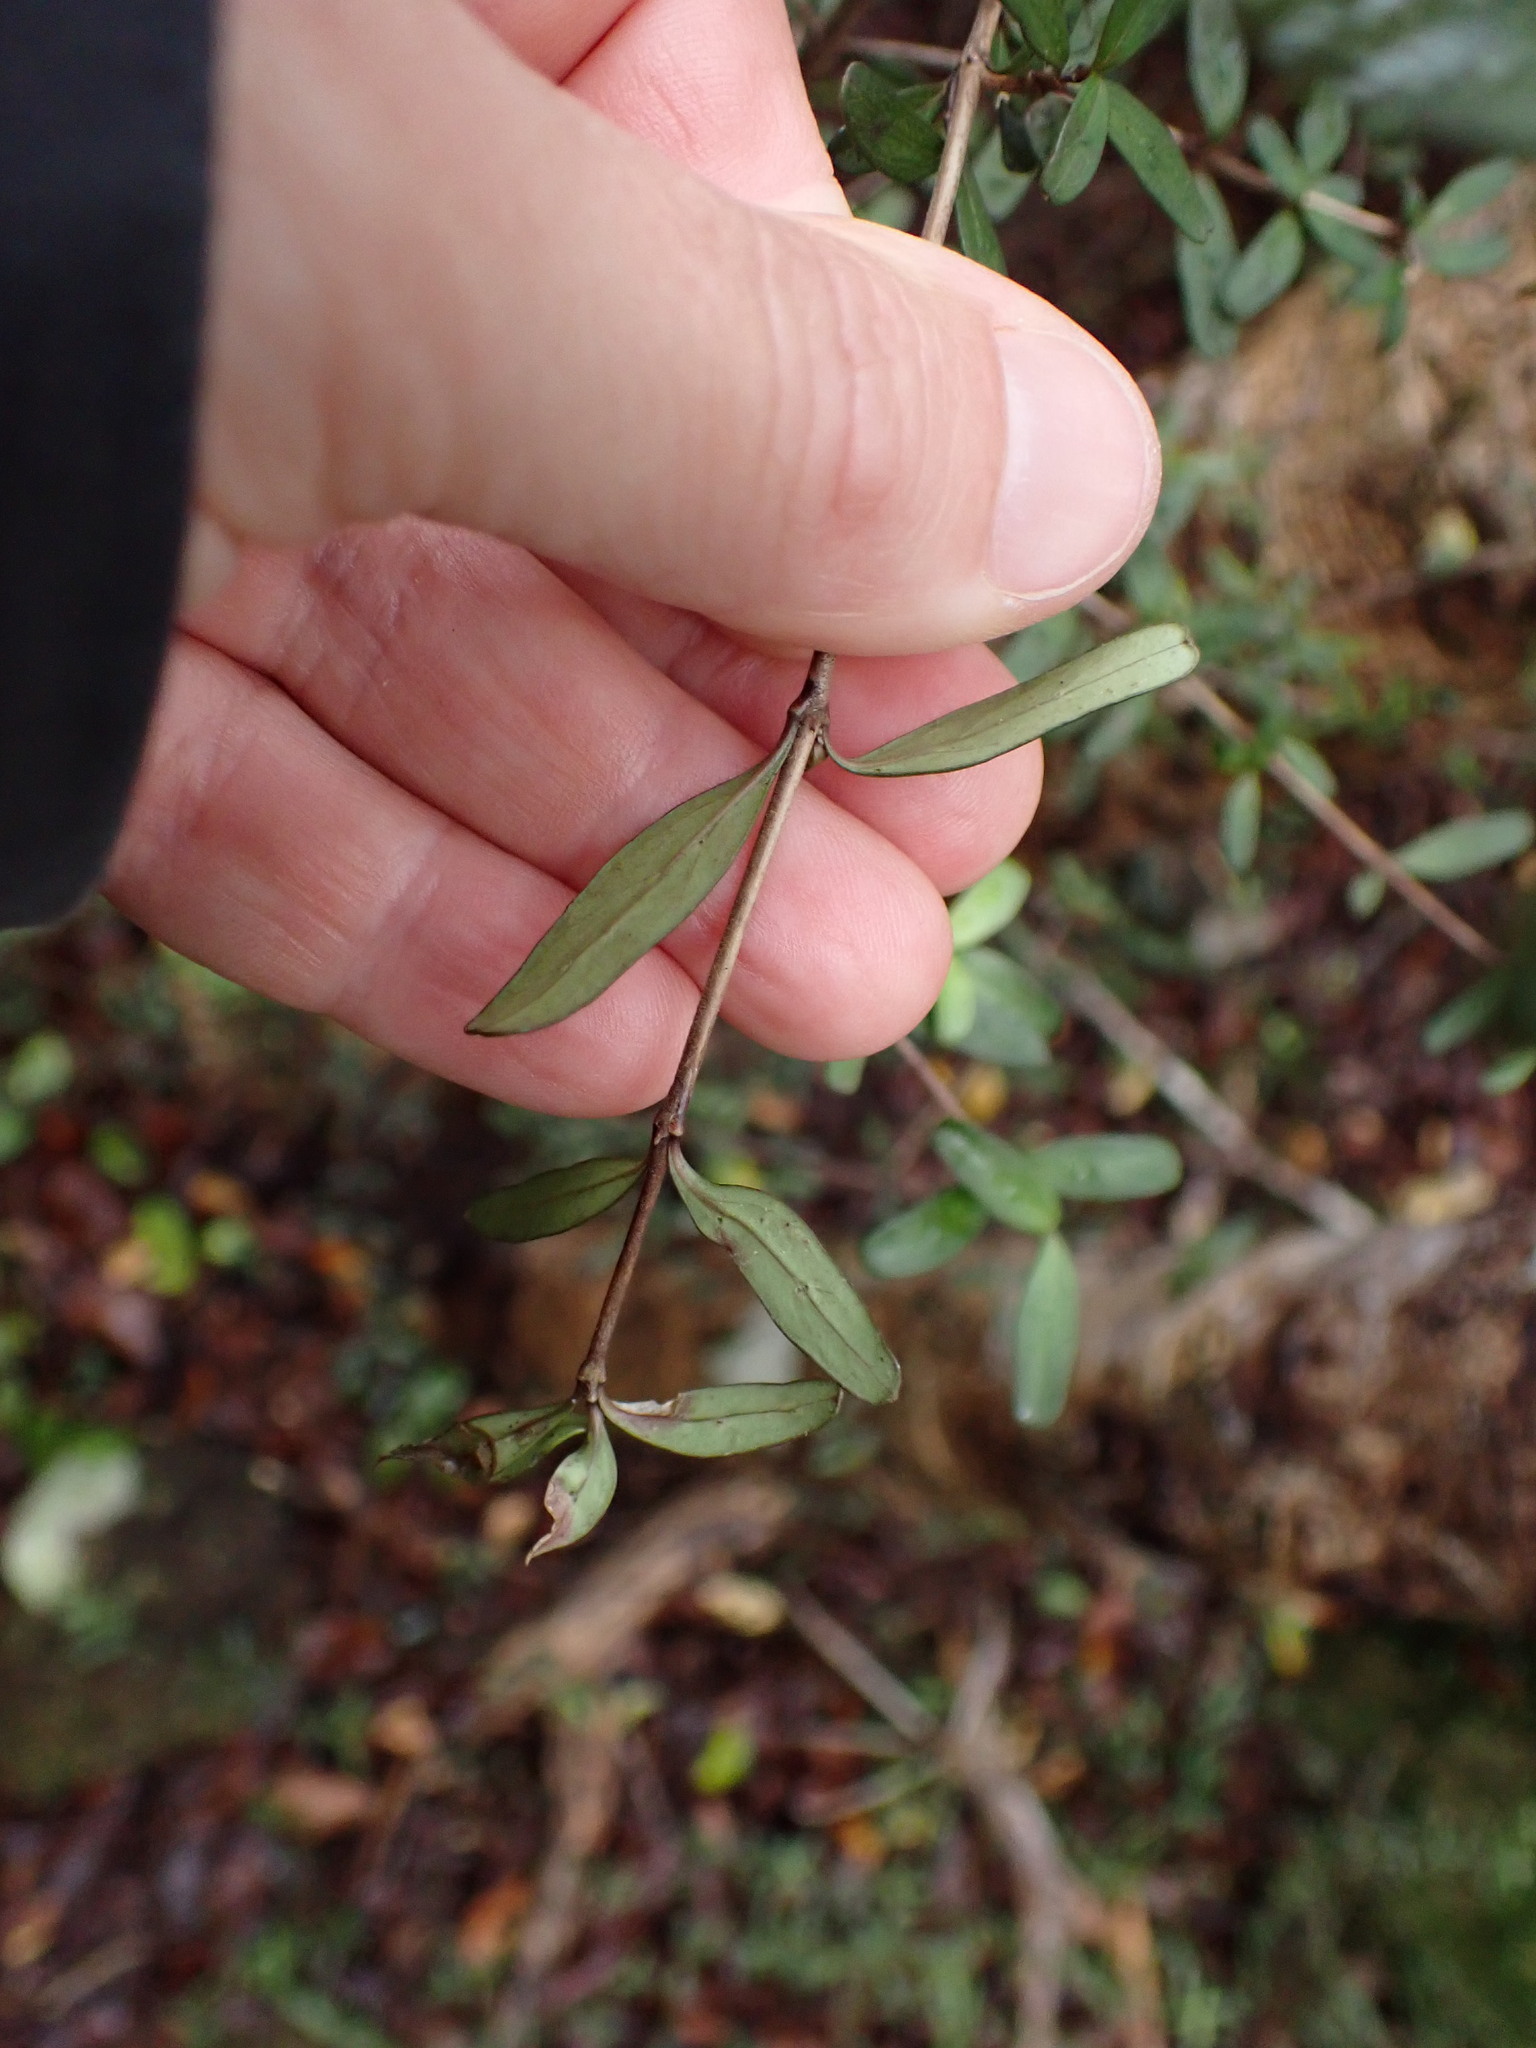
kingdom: Plantae
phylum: Tracheophyta
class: Magnoliopsida
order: Gentianales
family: Rubiaceae
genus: Coprosma
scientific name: Coprosma colensoi
